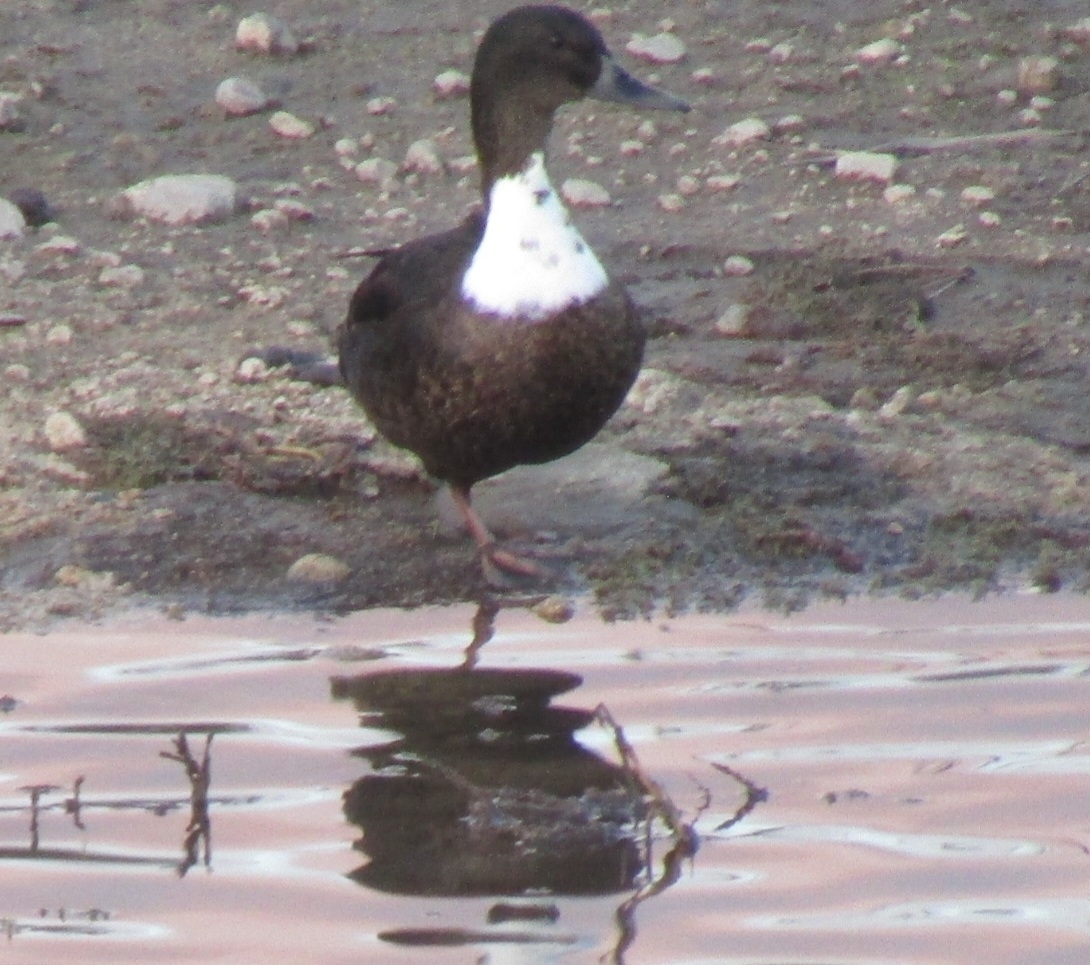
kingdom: Animalia
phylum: Chordata
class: Aves
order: Anseriformes
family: Anatidae
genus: Anas
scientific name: Anas platyrhynchos
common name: Mallard
